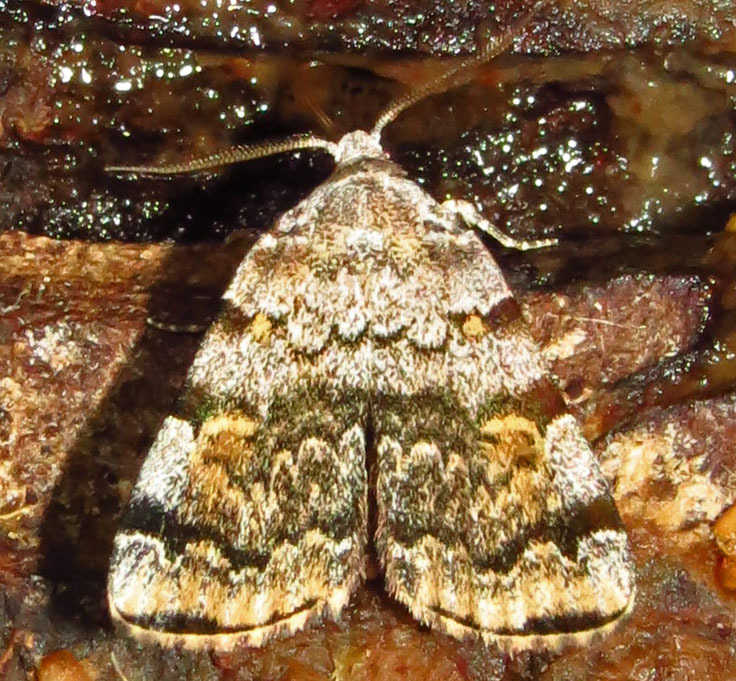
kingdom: Animalia
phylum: Arthropoda
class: Insecta
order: Lepidoptera
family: Erebidae
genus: Idia
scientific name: Idia americalis
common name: American idia moth
